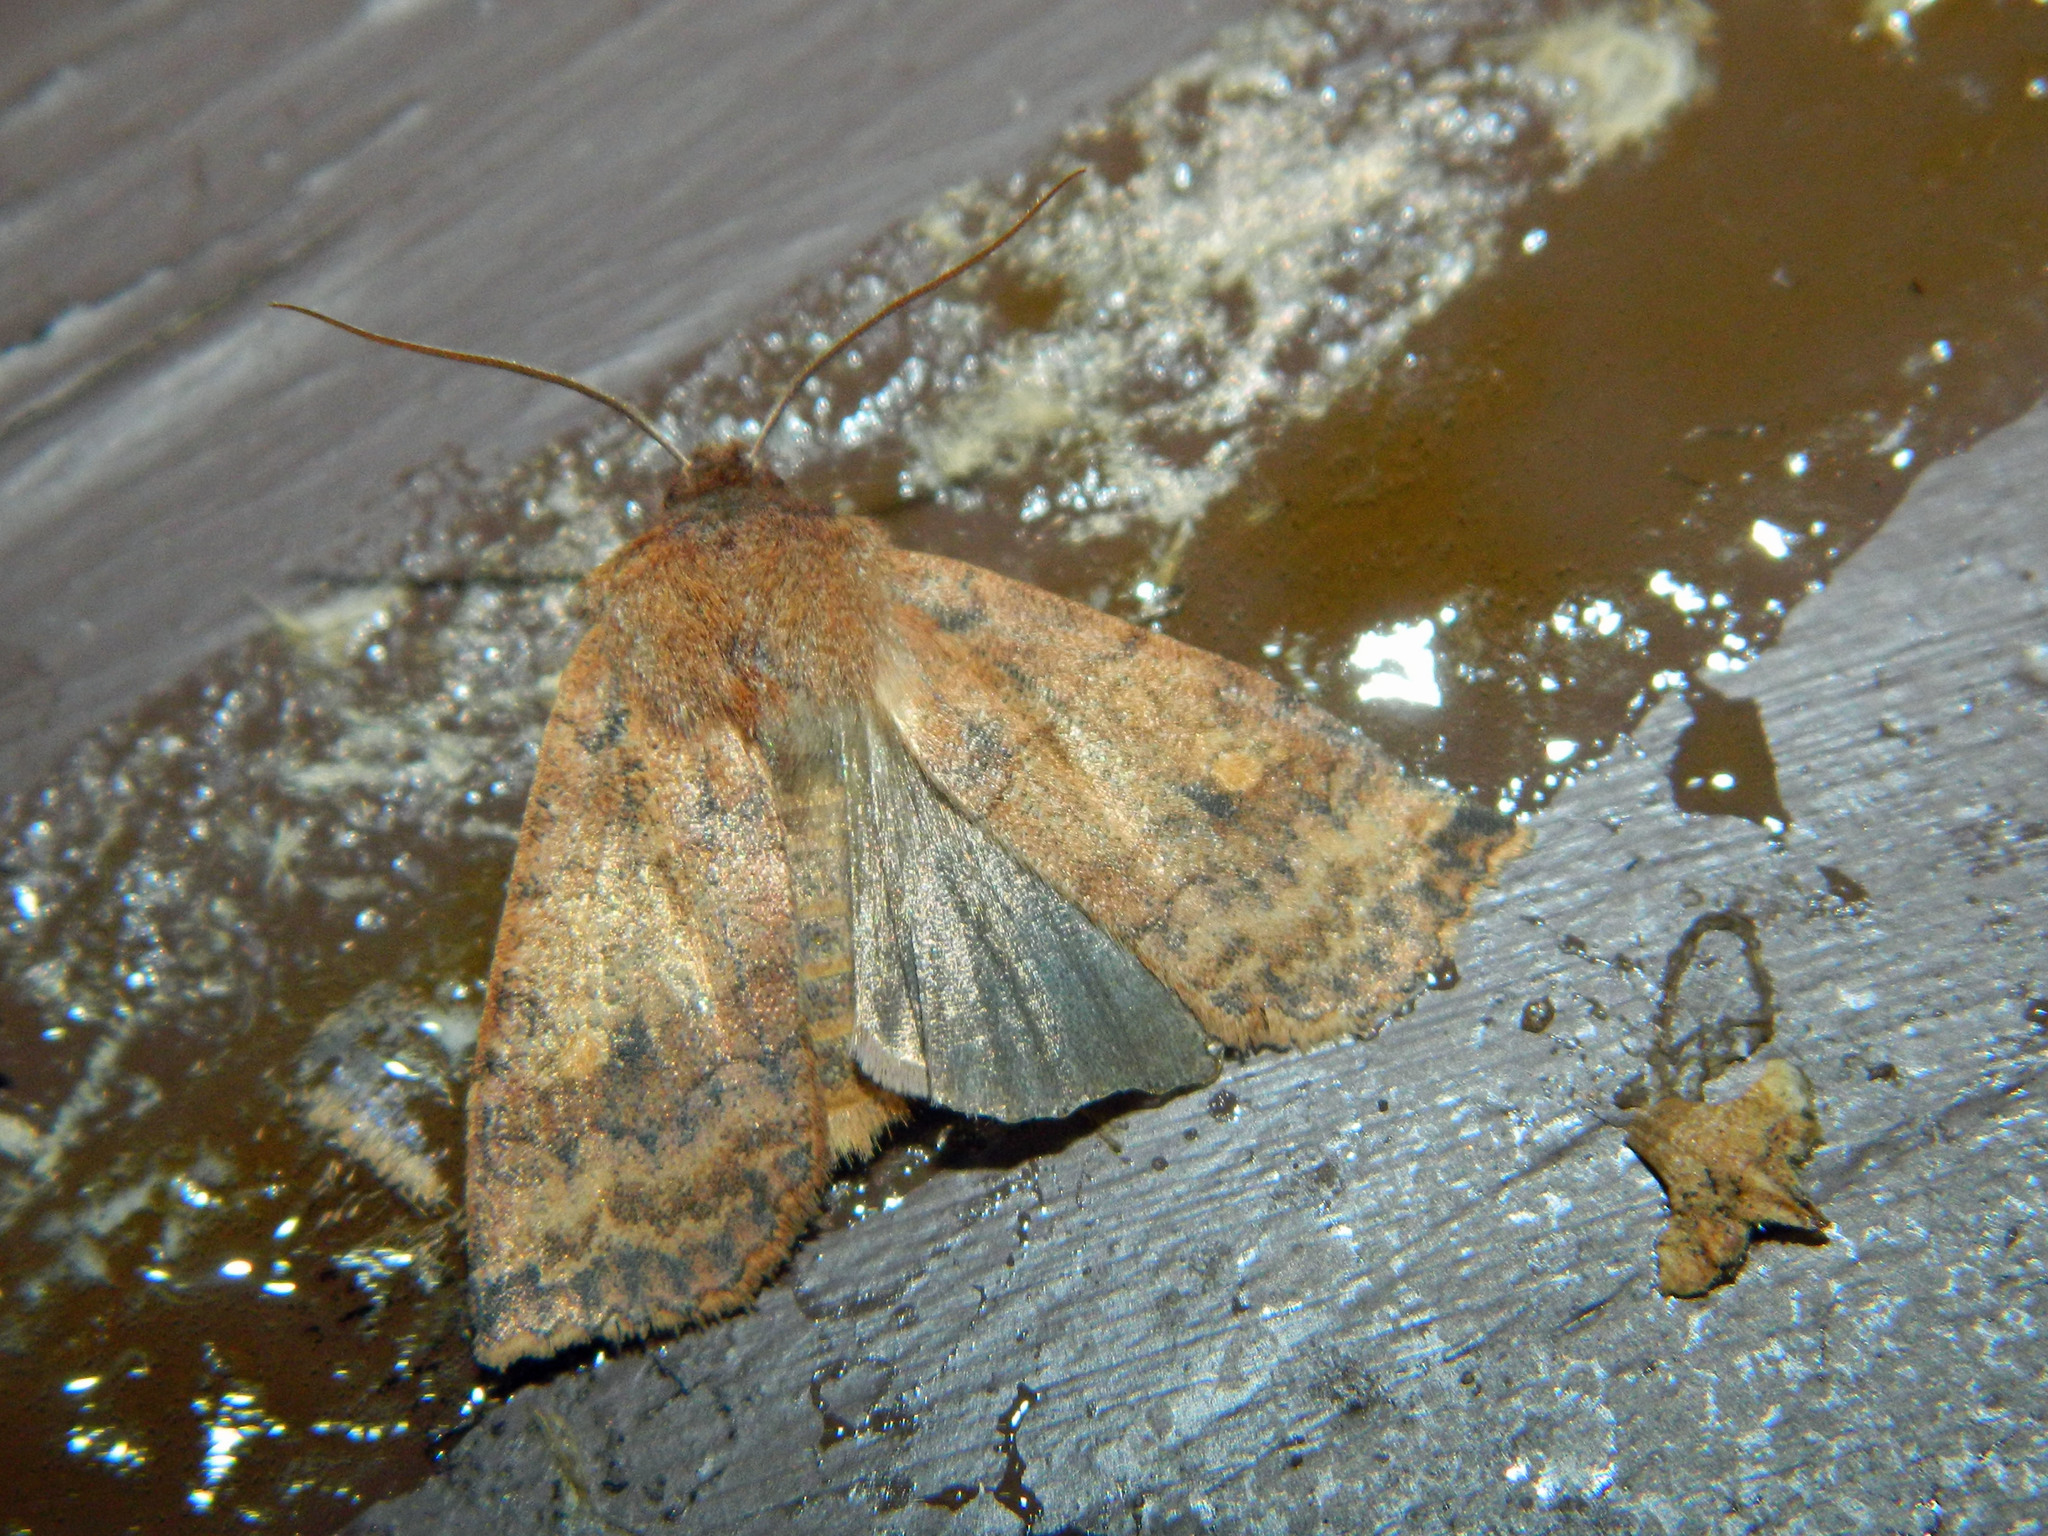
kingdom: Animalia
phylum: Arthropoda
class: Insecta
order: Lepidoptera
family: Noctuidae
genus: Eupsilia
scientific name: Eupsilia tristigmata
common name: Three-spotted sallow
